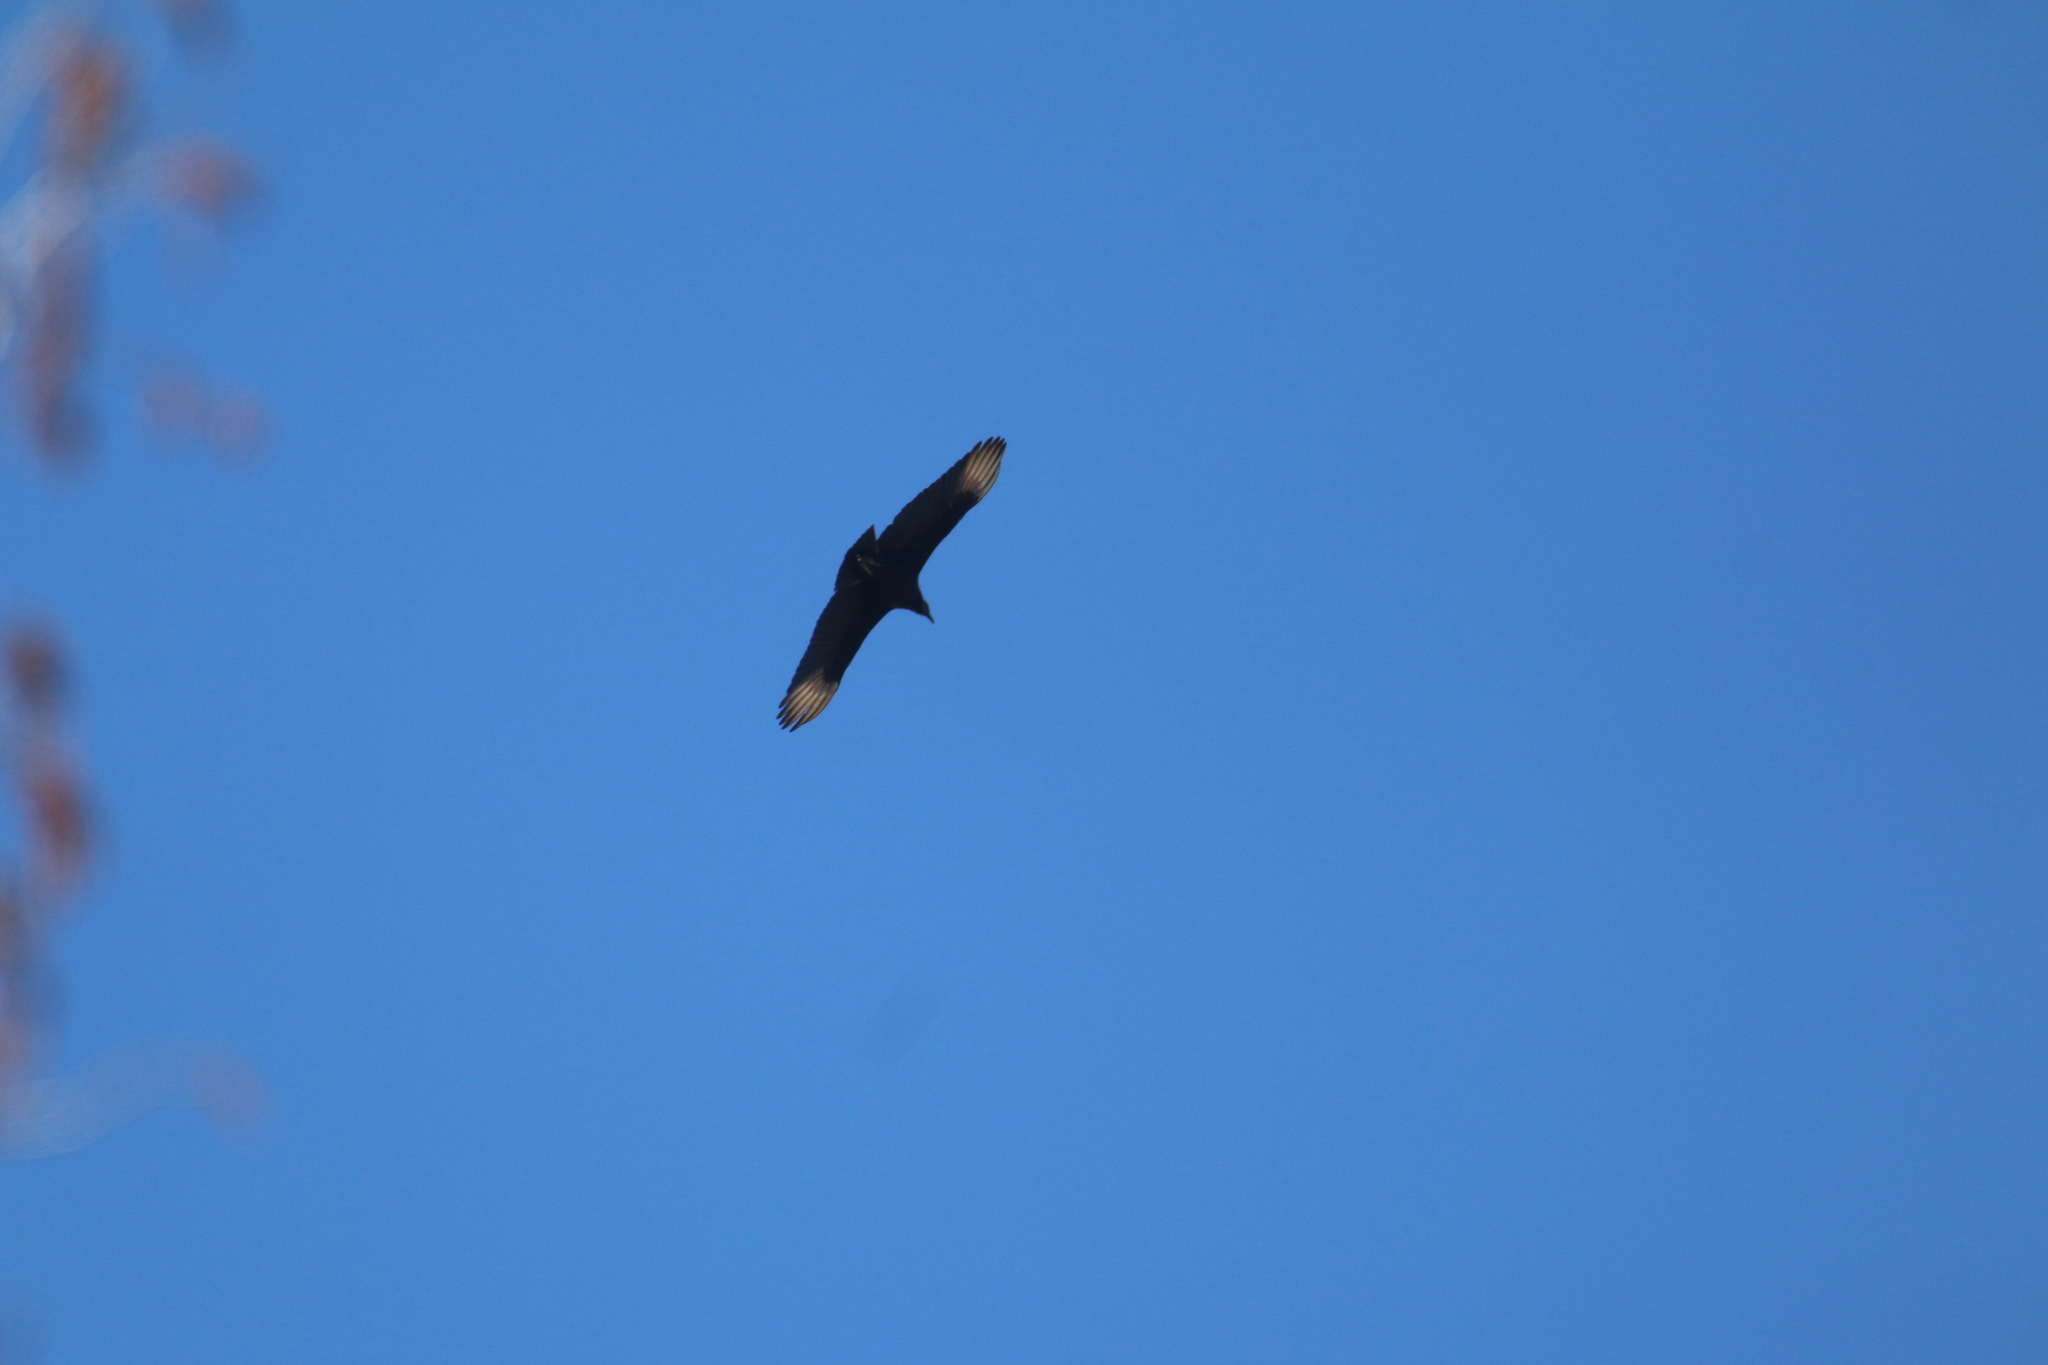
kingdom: Animalia
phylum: Chordata
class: Aves
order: Accipitriformes
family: Cathartidae
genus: Coragyps
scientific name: Coragyps atratus
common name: Black vulture
